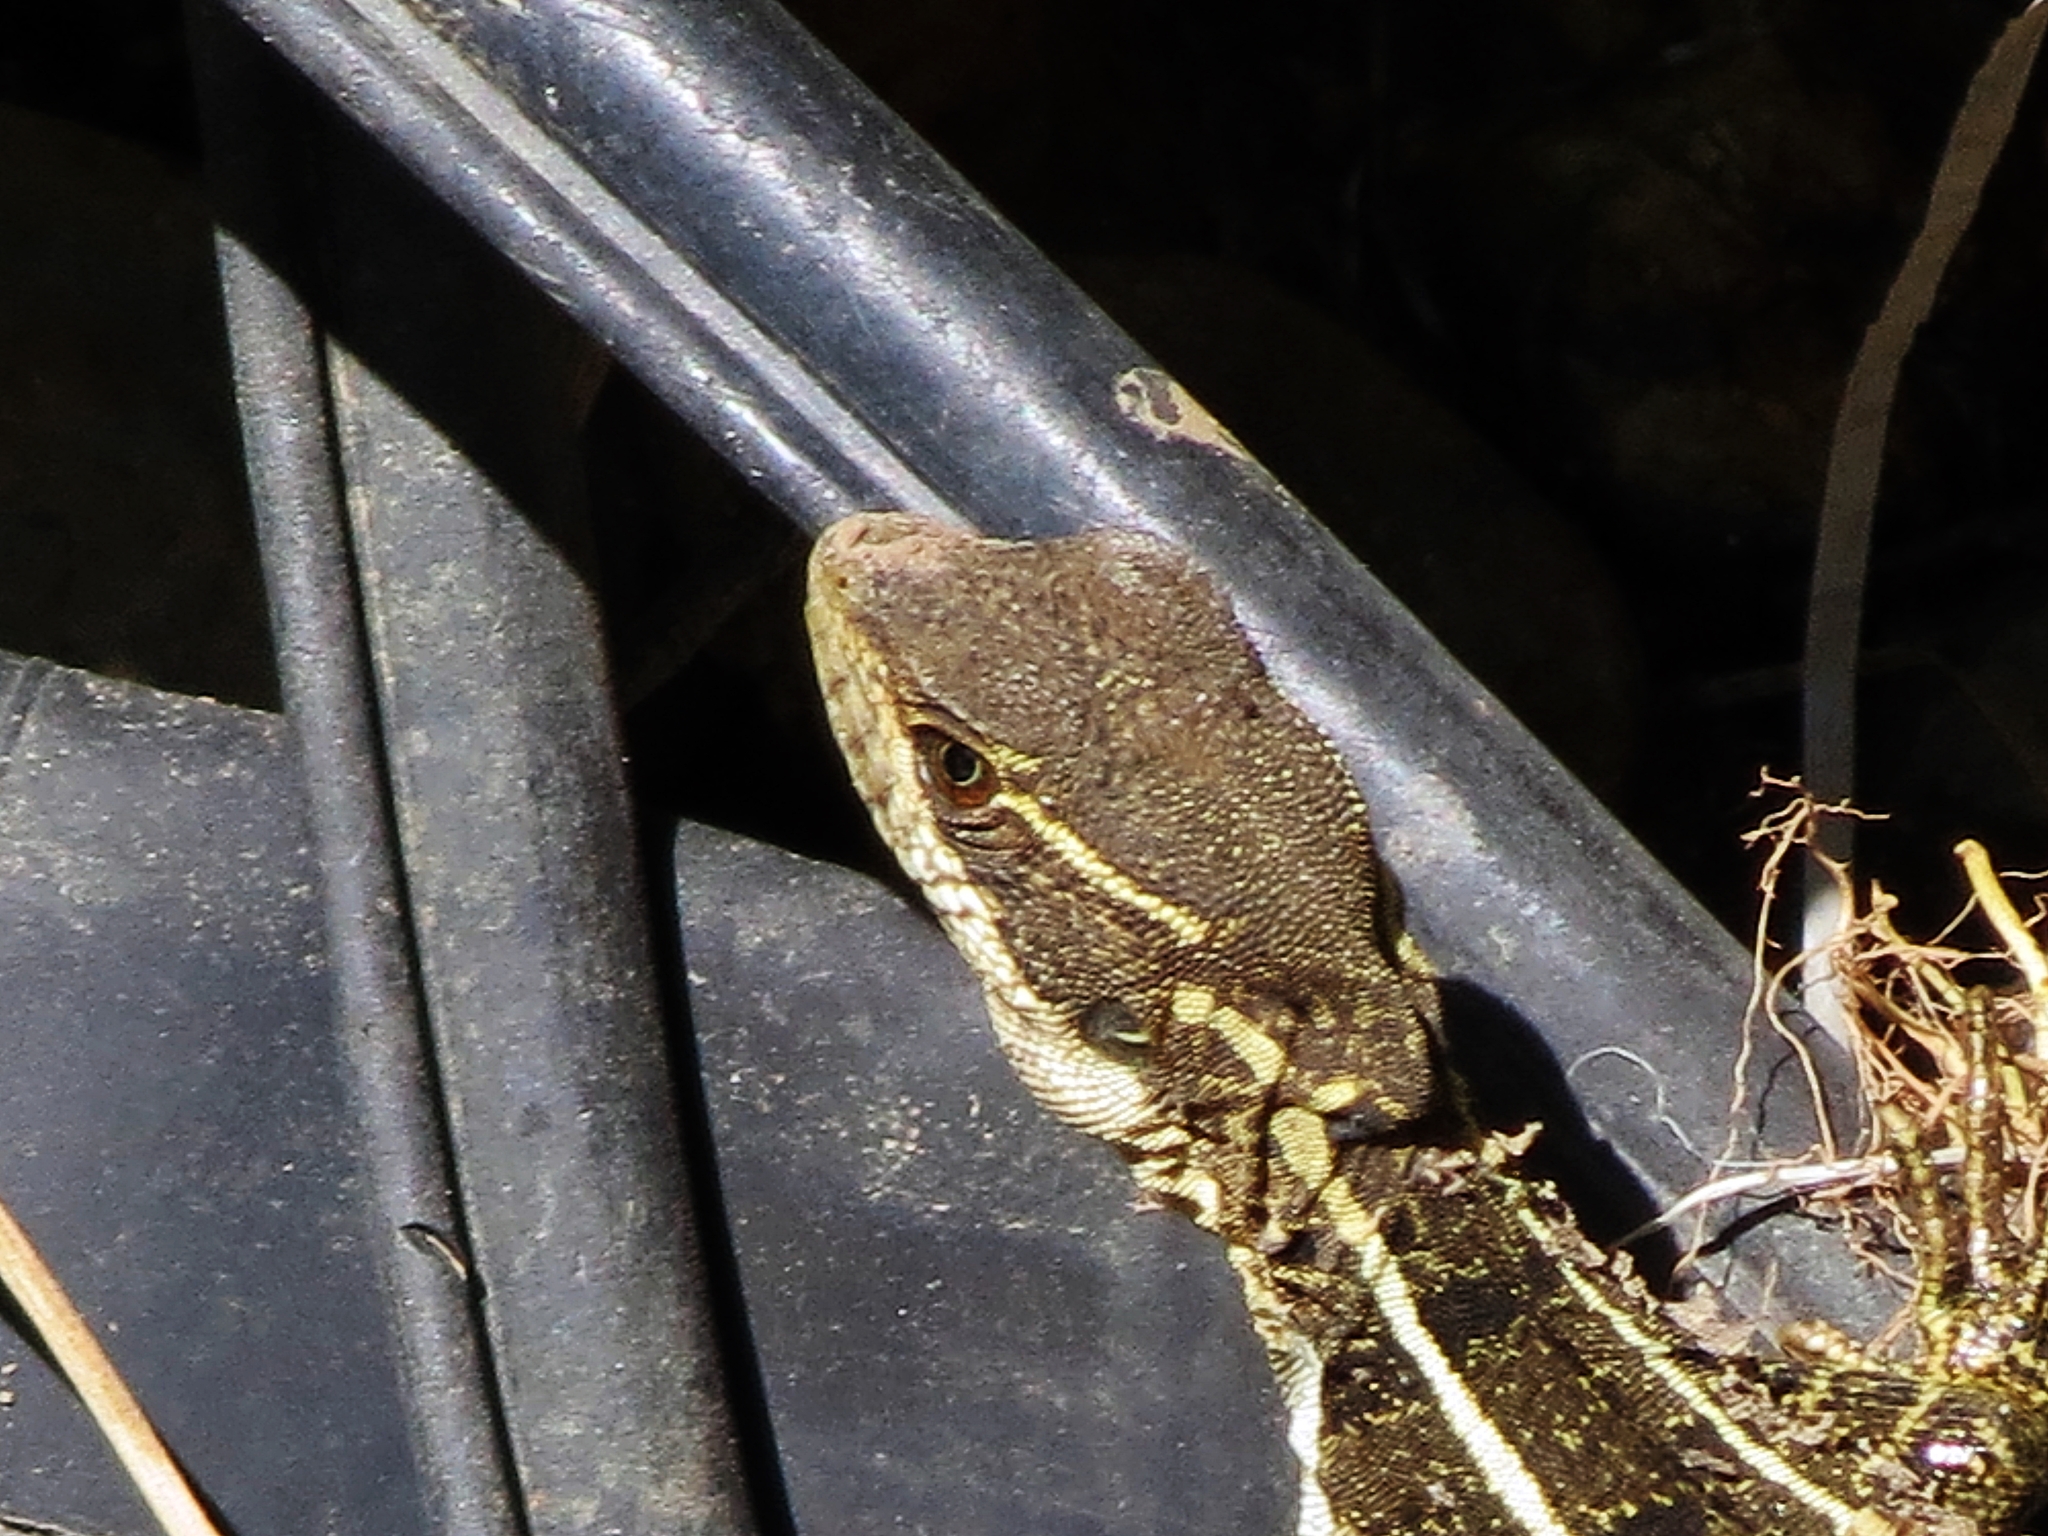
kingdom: Animalia
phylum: Chordata
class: Squamata
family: Corytophanidae
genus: Basiliscus
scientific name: Basiliscus basiliscus
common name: Common basilisk
